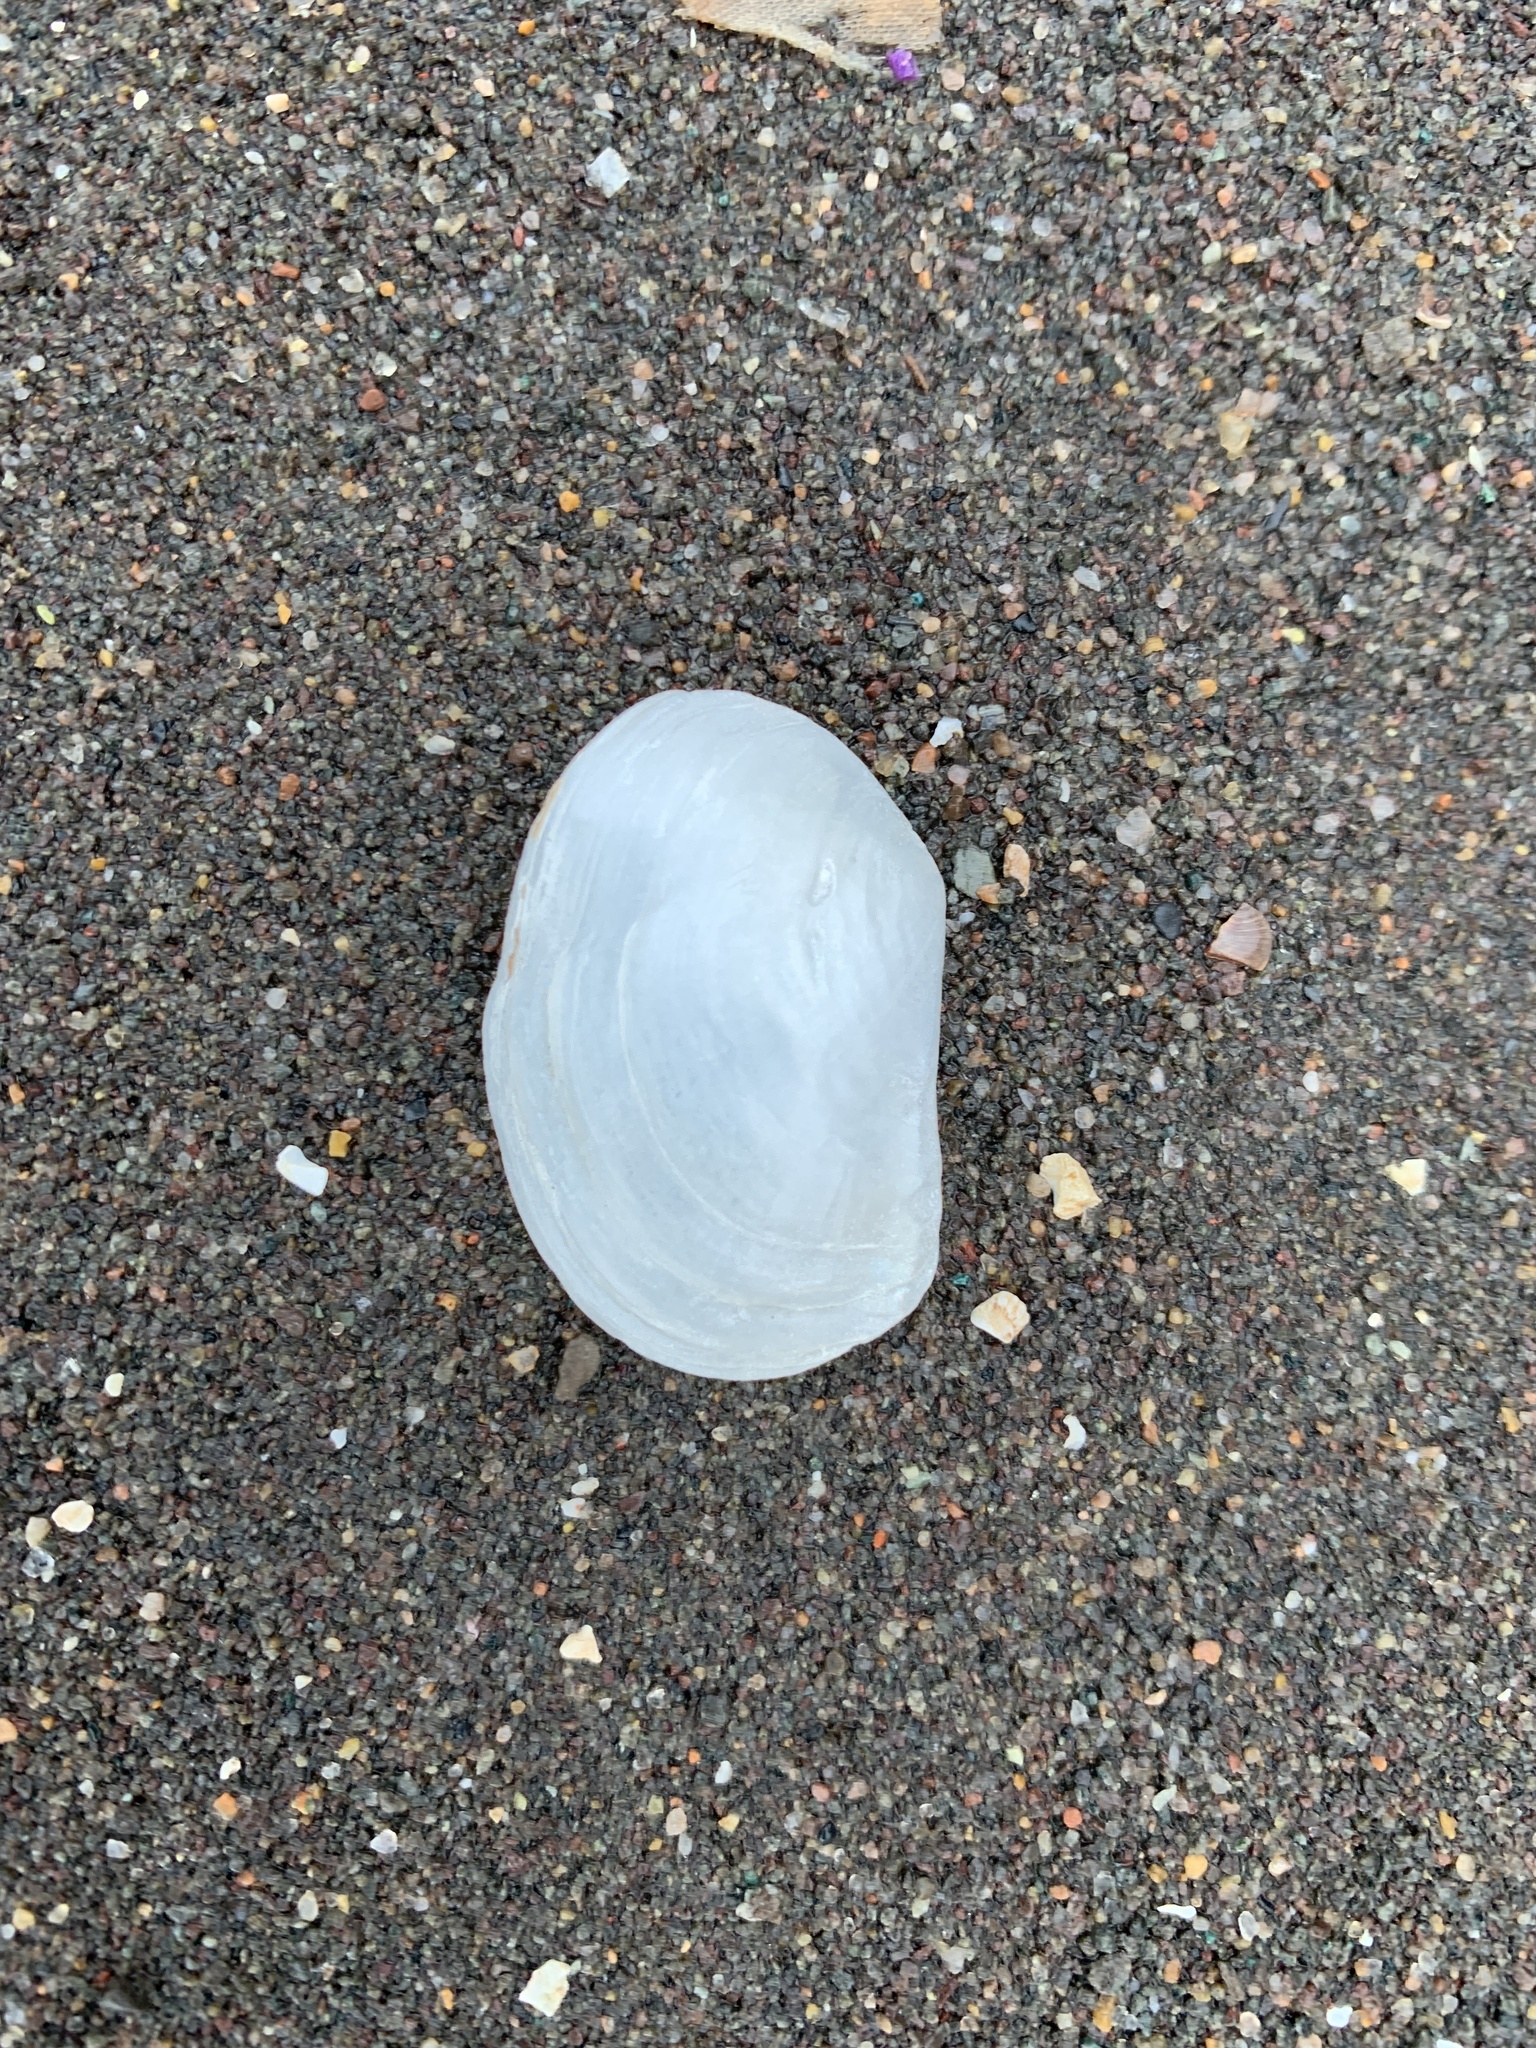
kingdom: Animalia
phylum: Mollusca
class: Bivalvia
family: Pandoridae
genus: Pandora
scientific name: Pandora gouldiana
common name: Rounded pandora
